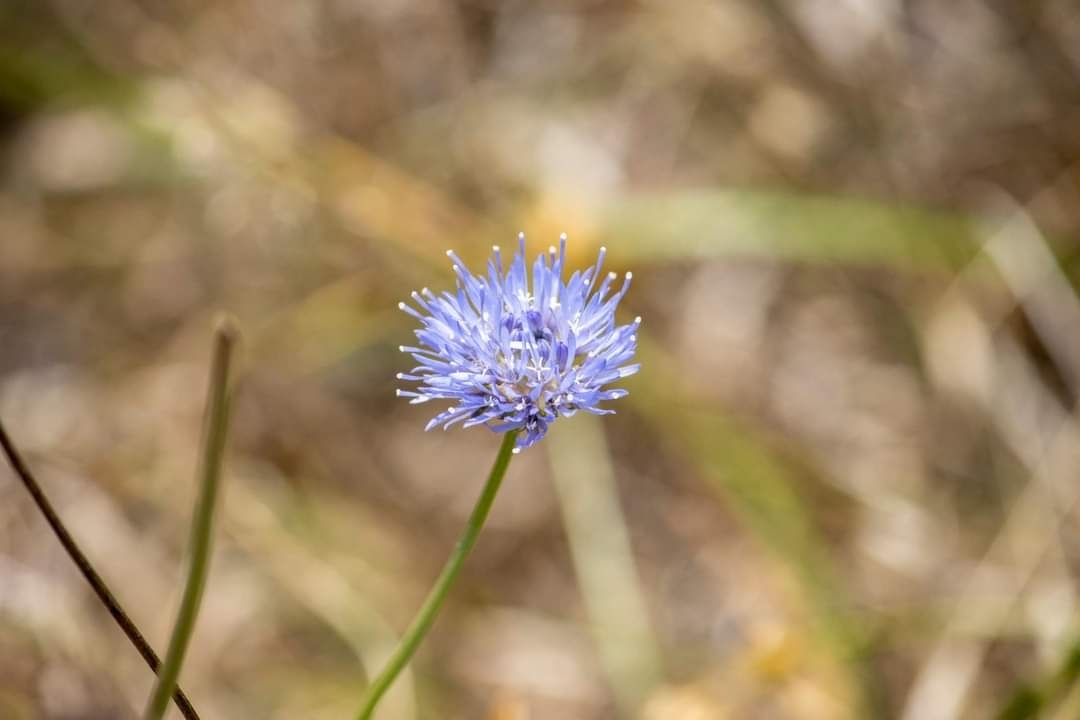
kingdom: Plantae
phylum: Tracheophyta
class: Magnoliopsida
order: Asterales
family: Campanulaceae
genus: Jasione
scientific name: Jasione montana
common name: Sheep's-bit
